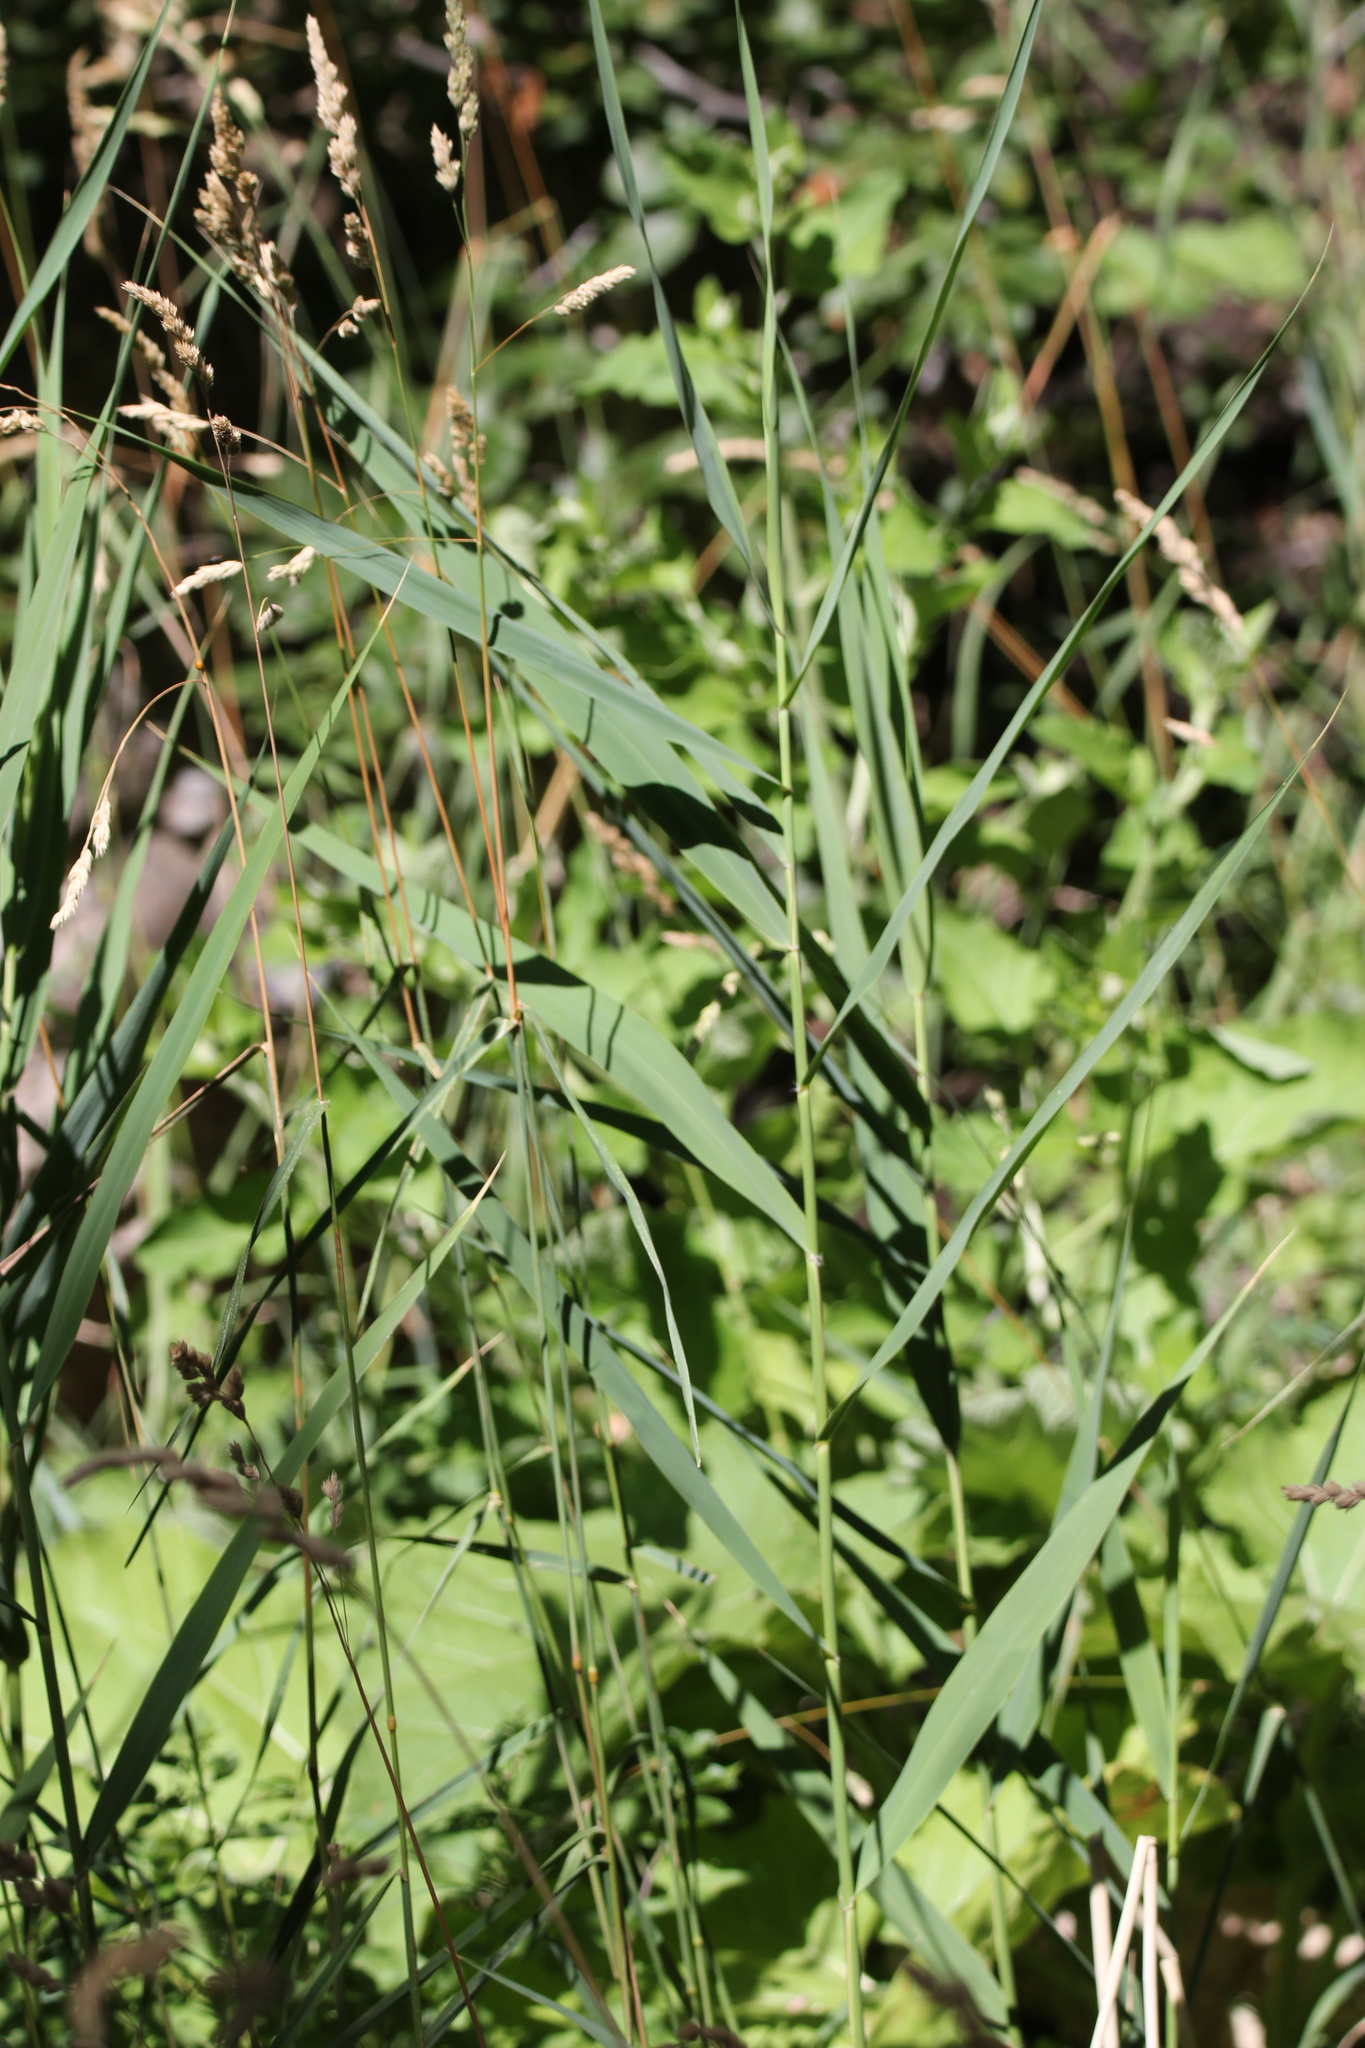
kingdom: Plantae
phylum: Tracheophyta
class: Liliopsida
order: Poales
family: Poaceae
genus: Dactylis
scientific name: Dactylis glomerata
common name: Orchardgrass
